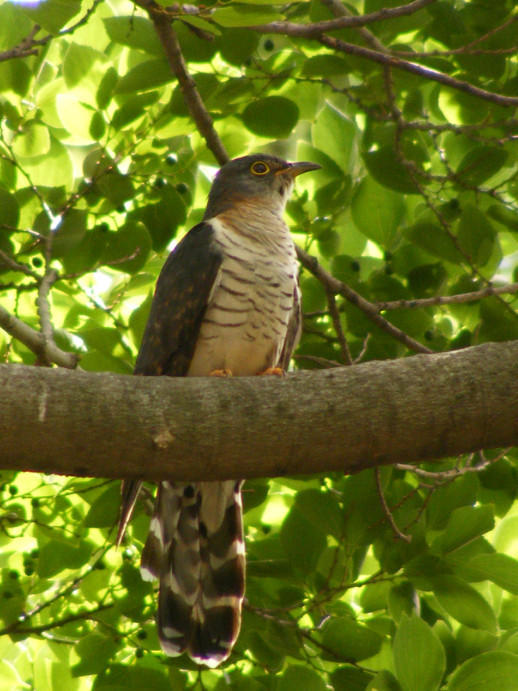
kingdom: Animalia
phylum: Chordata
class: Aves
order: Cuculiformes
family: Cuculidae
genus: Cuculus
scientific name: Cuculus solitarius
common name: Red-chested cuckoo
